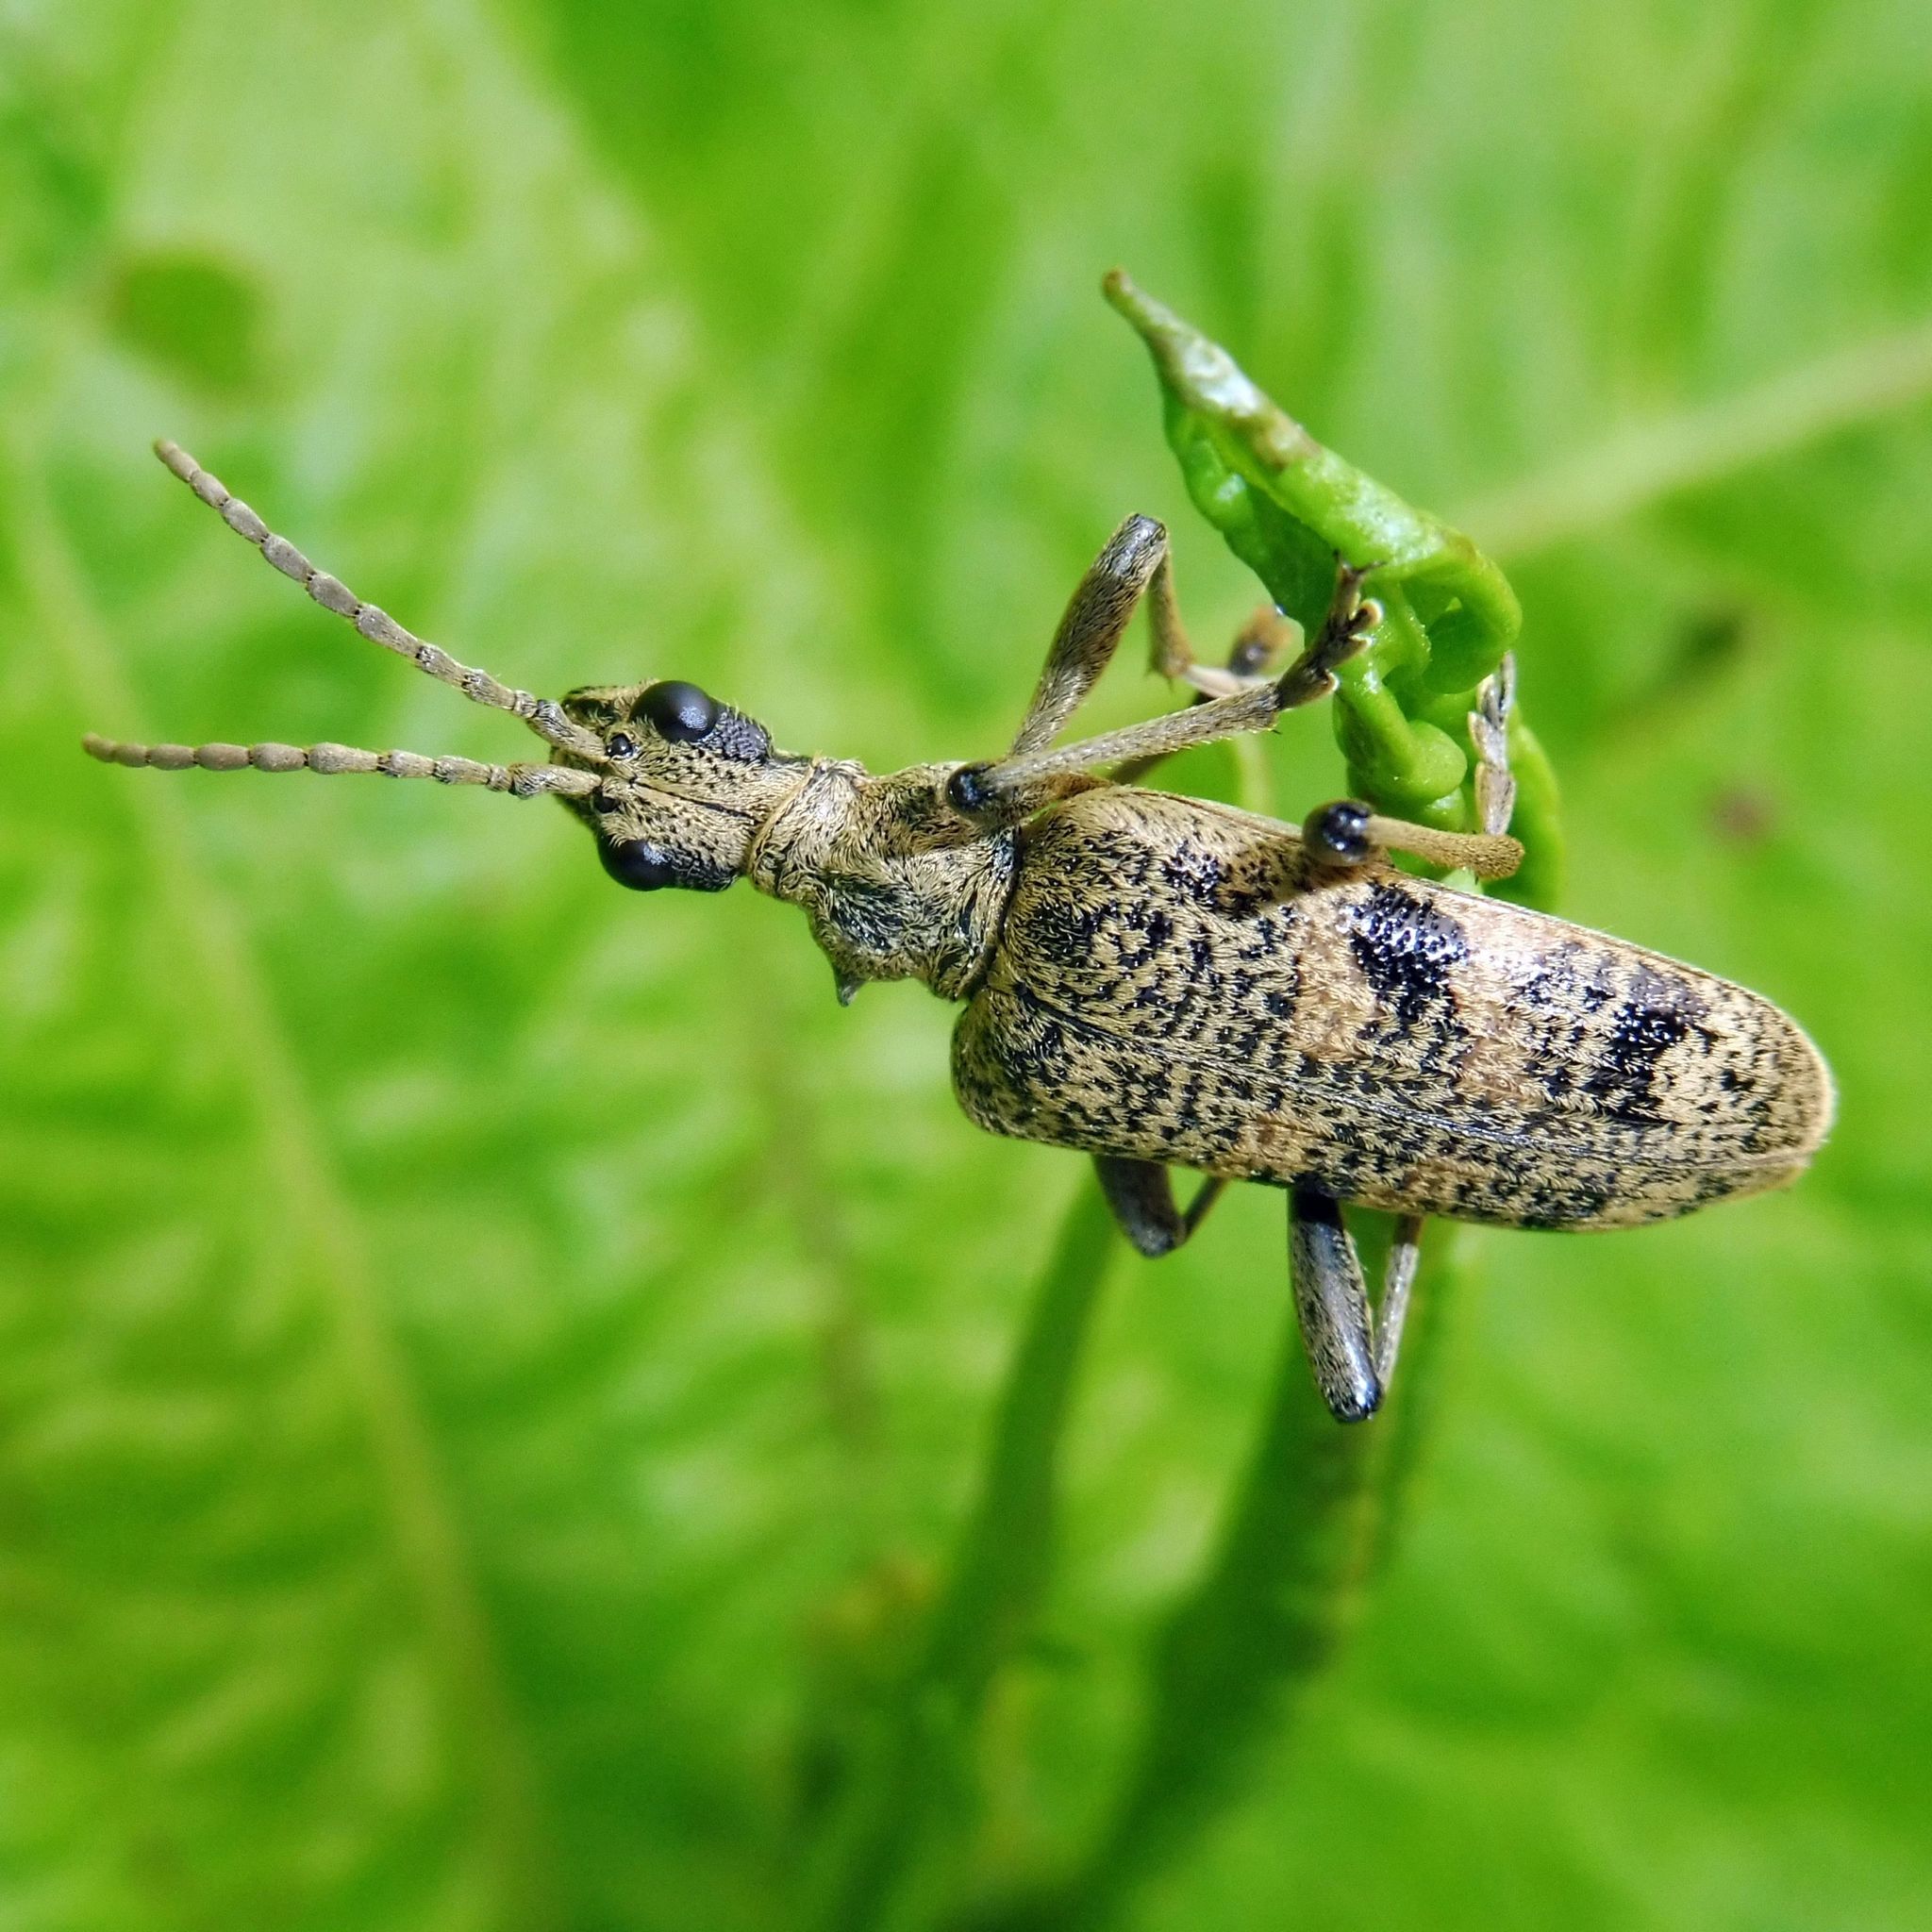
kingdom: Animalia
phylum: Arthropoda
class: Insecta
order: Coleoptera
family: Cerambycidae
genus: Rhagium
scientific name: Rhagium mordax
